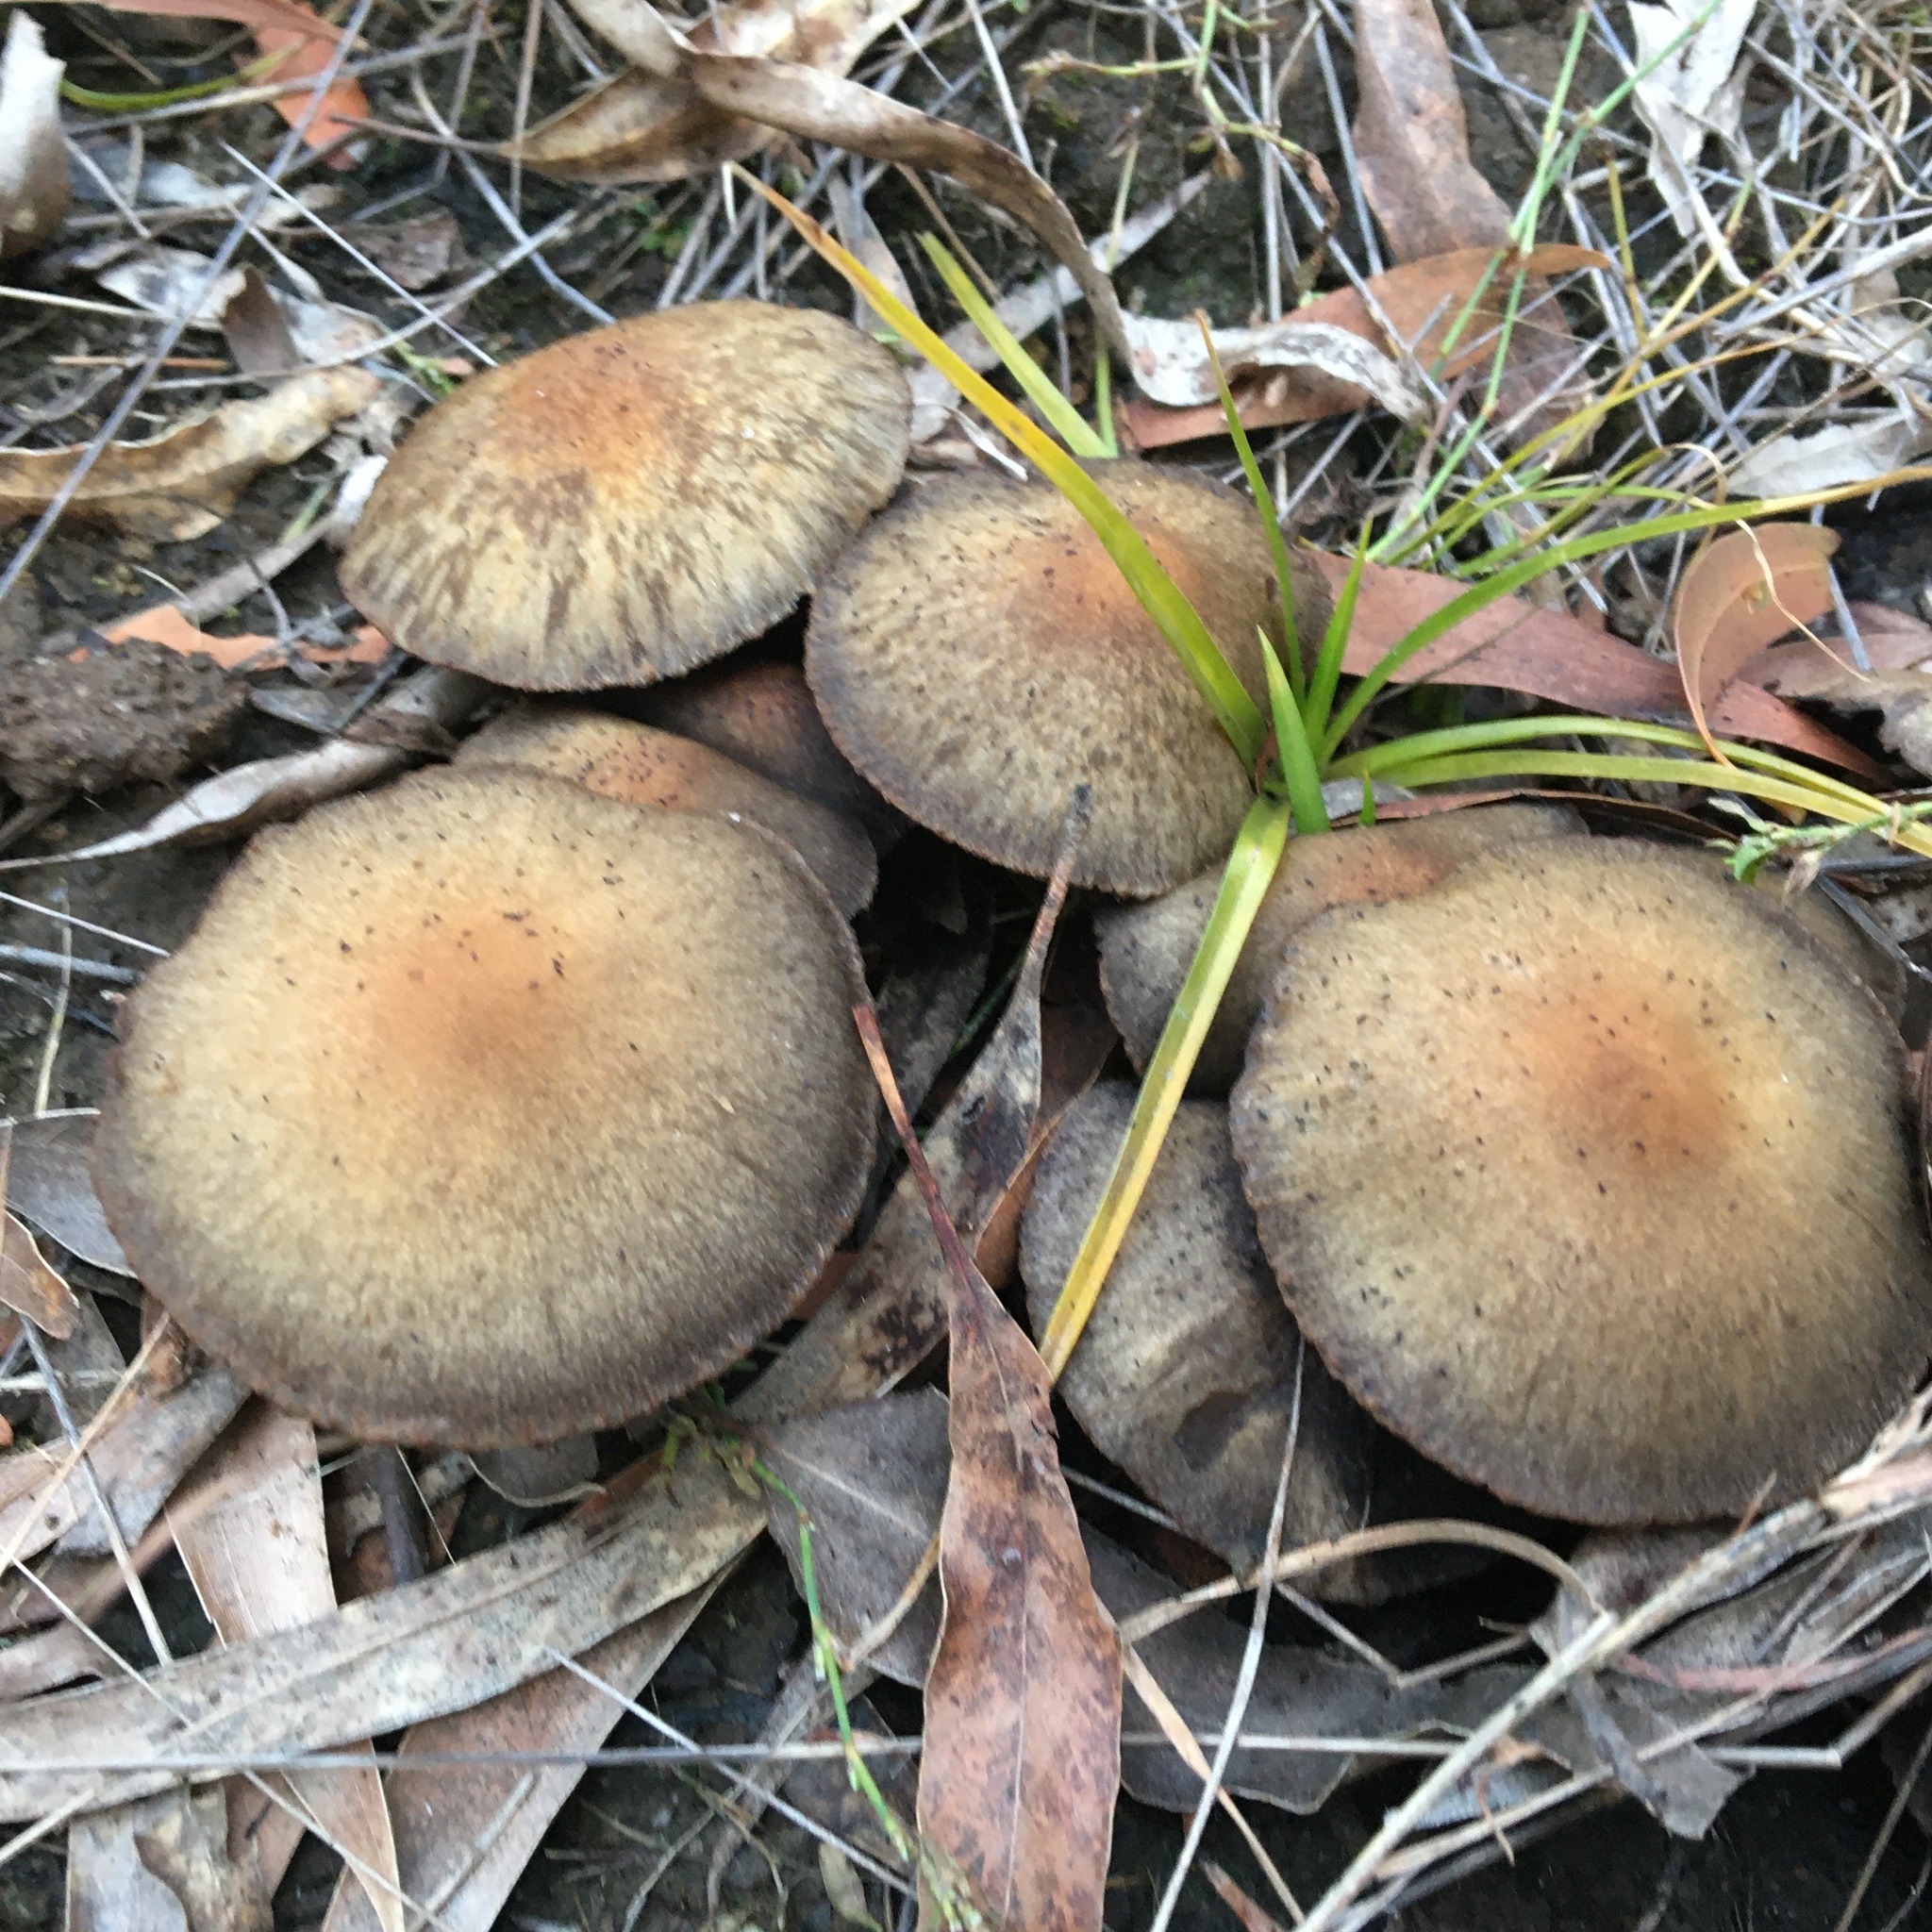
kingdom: Fungi
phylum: Basidiomycota
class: Agaricomycetes
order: Agaricales
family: Psathyrellaceae
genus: Psathyrella
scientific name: Psathyrella asperospora
